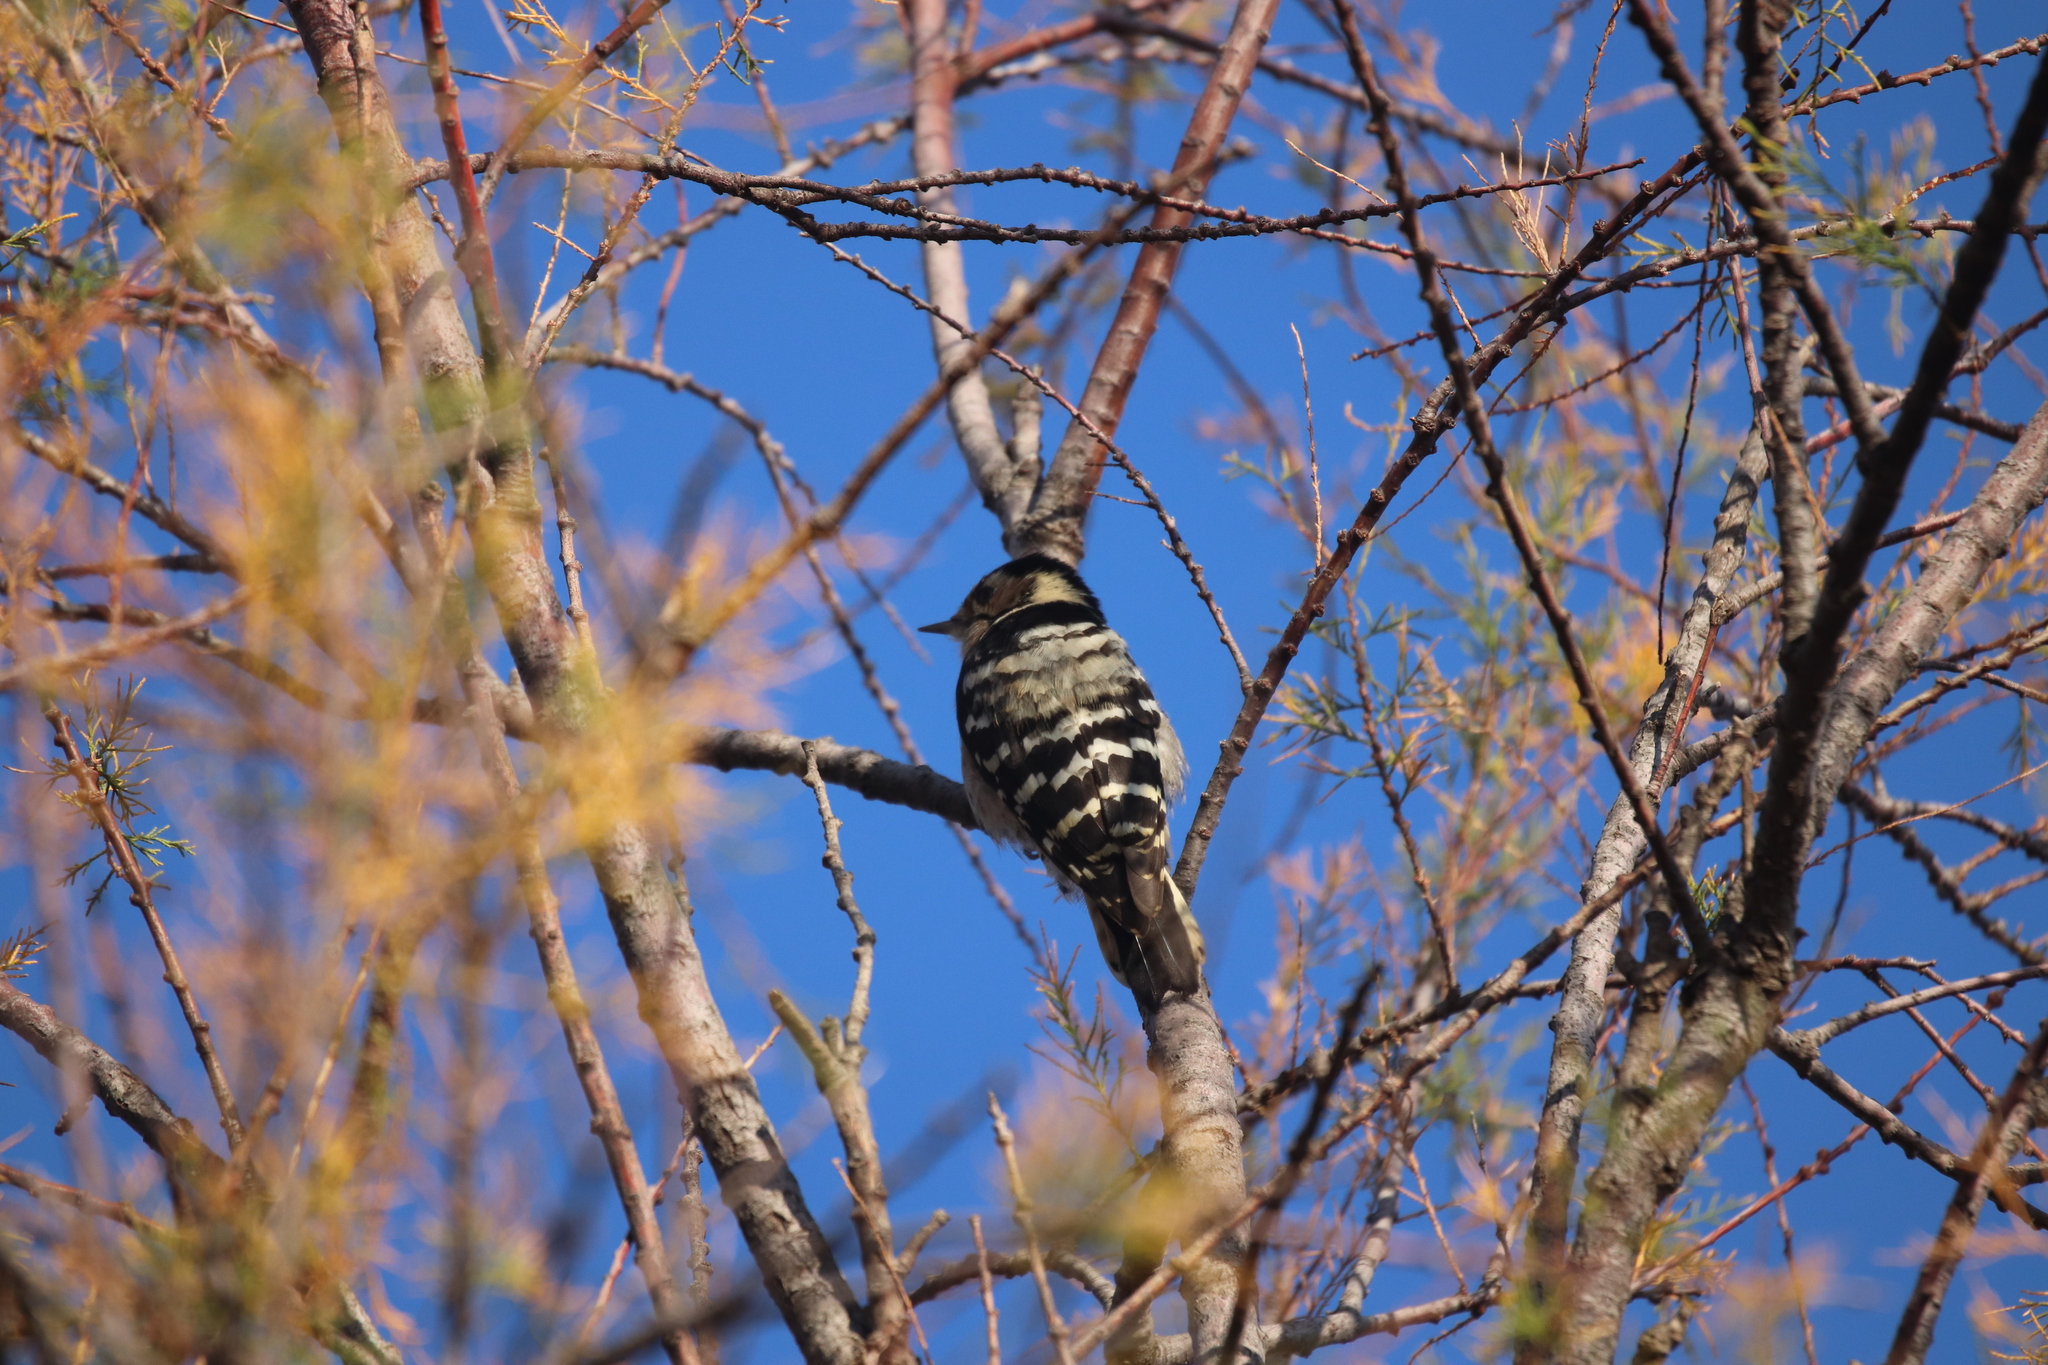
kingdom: Animalia
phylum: Chordata
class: Aves
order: Piciformes
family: Picidae
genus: Dryobates
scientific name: Dryobates minor
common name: Lesser spotted woodpecker
